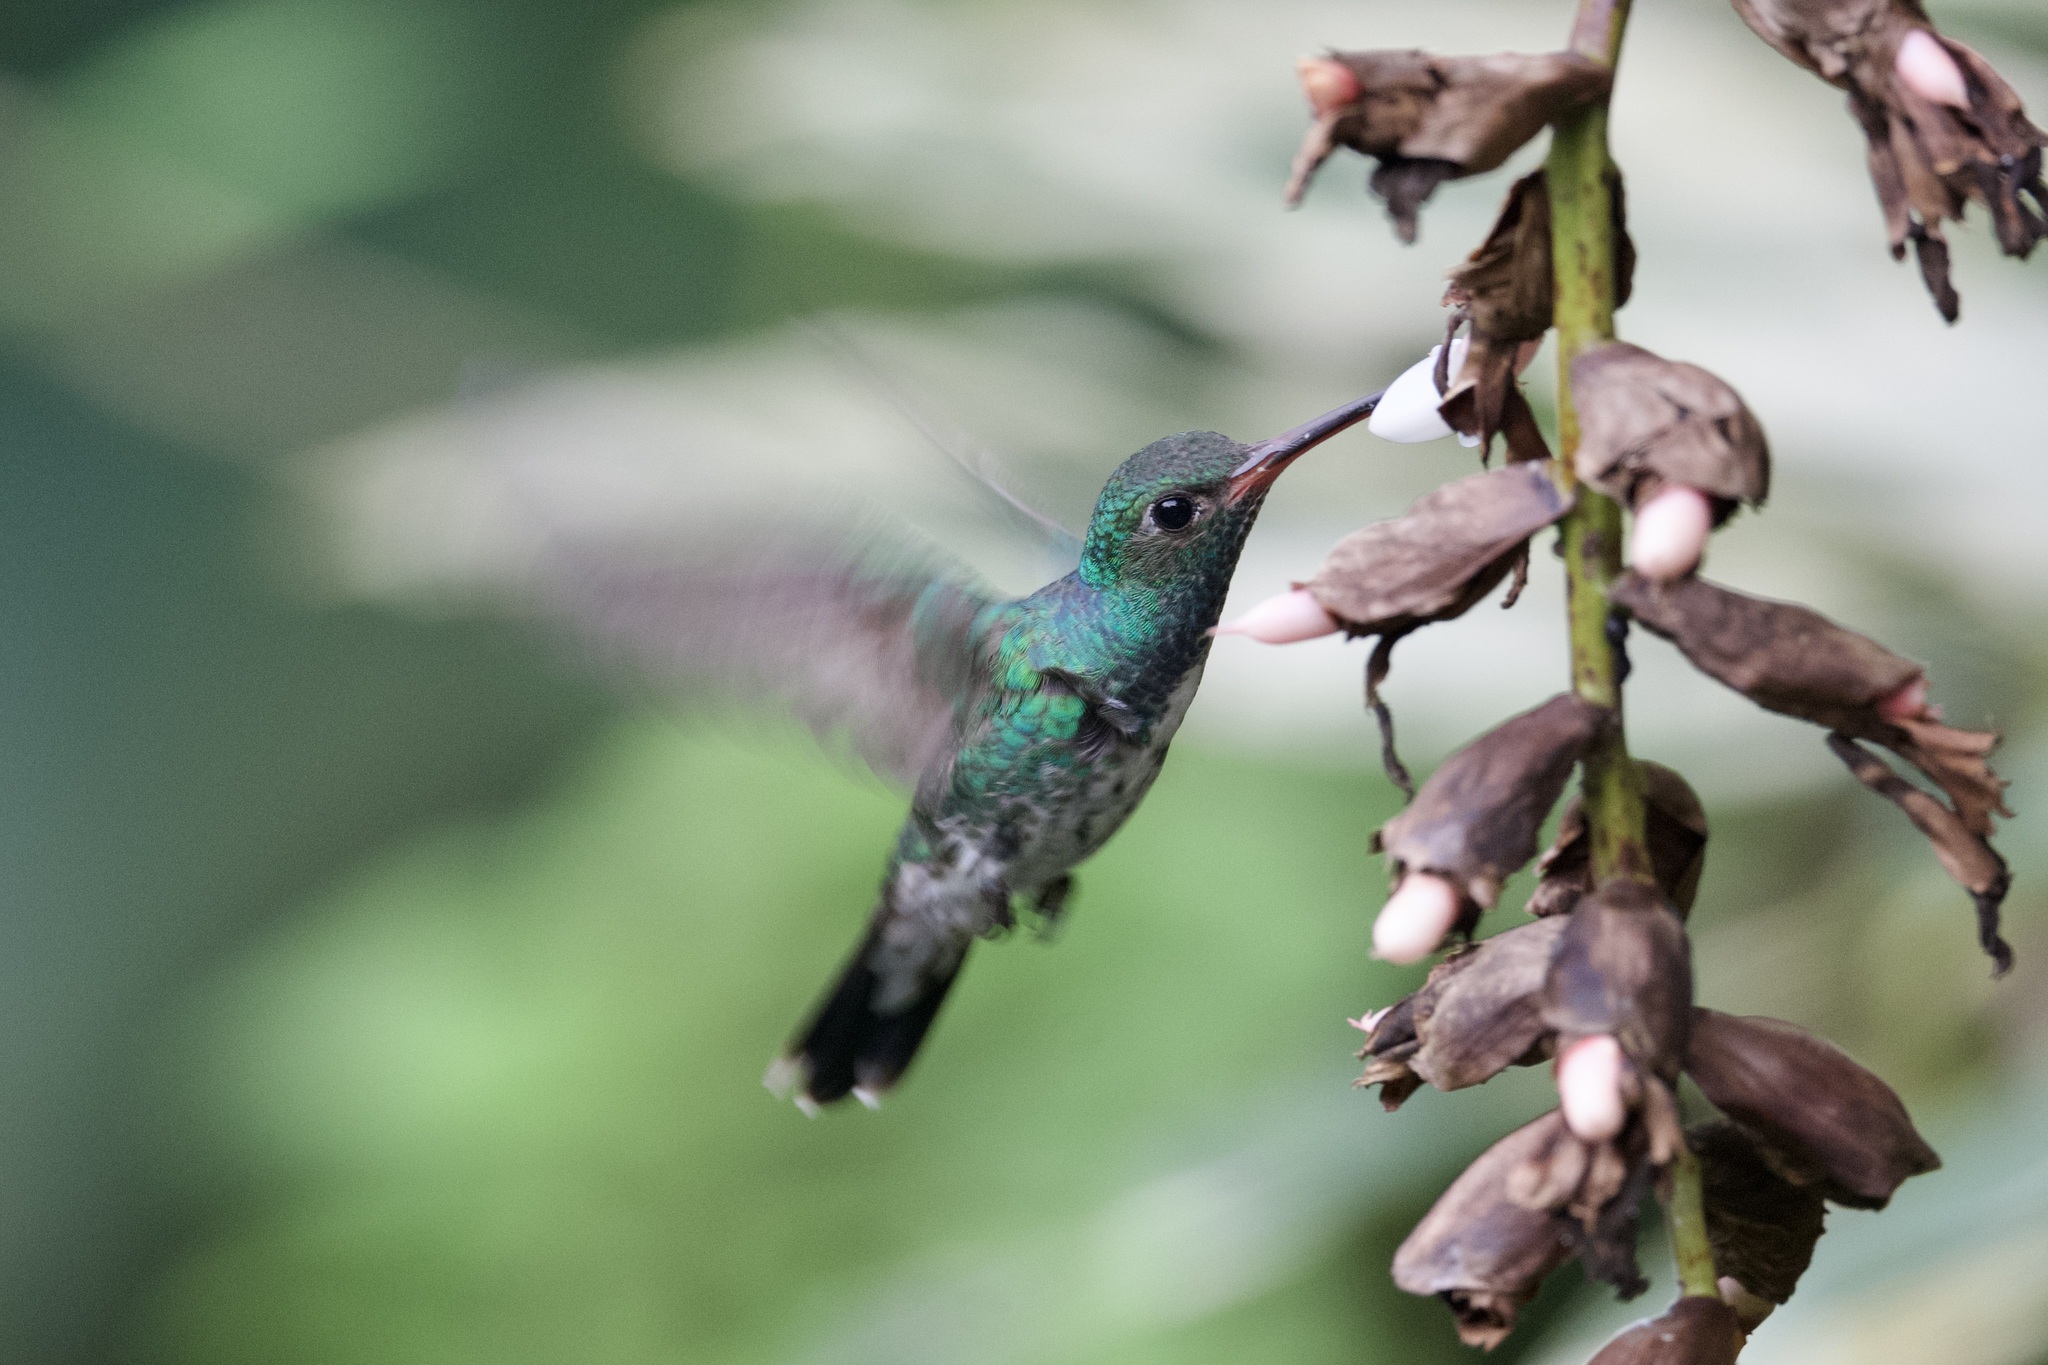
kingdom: Animalia
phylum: Chordata
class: Aves
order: Apodiformes
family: Trochilidae
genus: Chionomesa
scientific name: Chionomesa fimbriata
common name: Glittering-throated emerald
